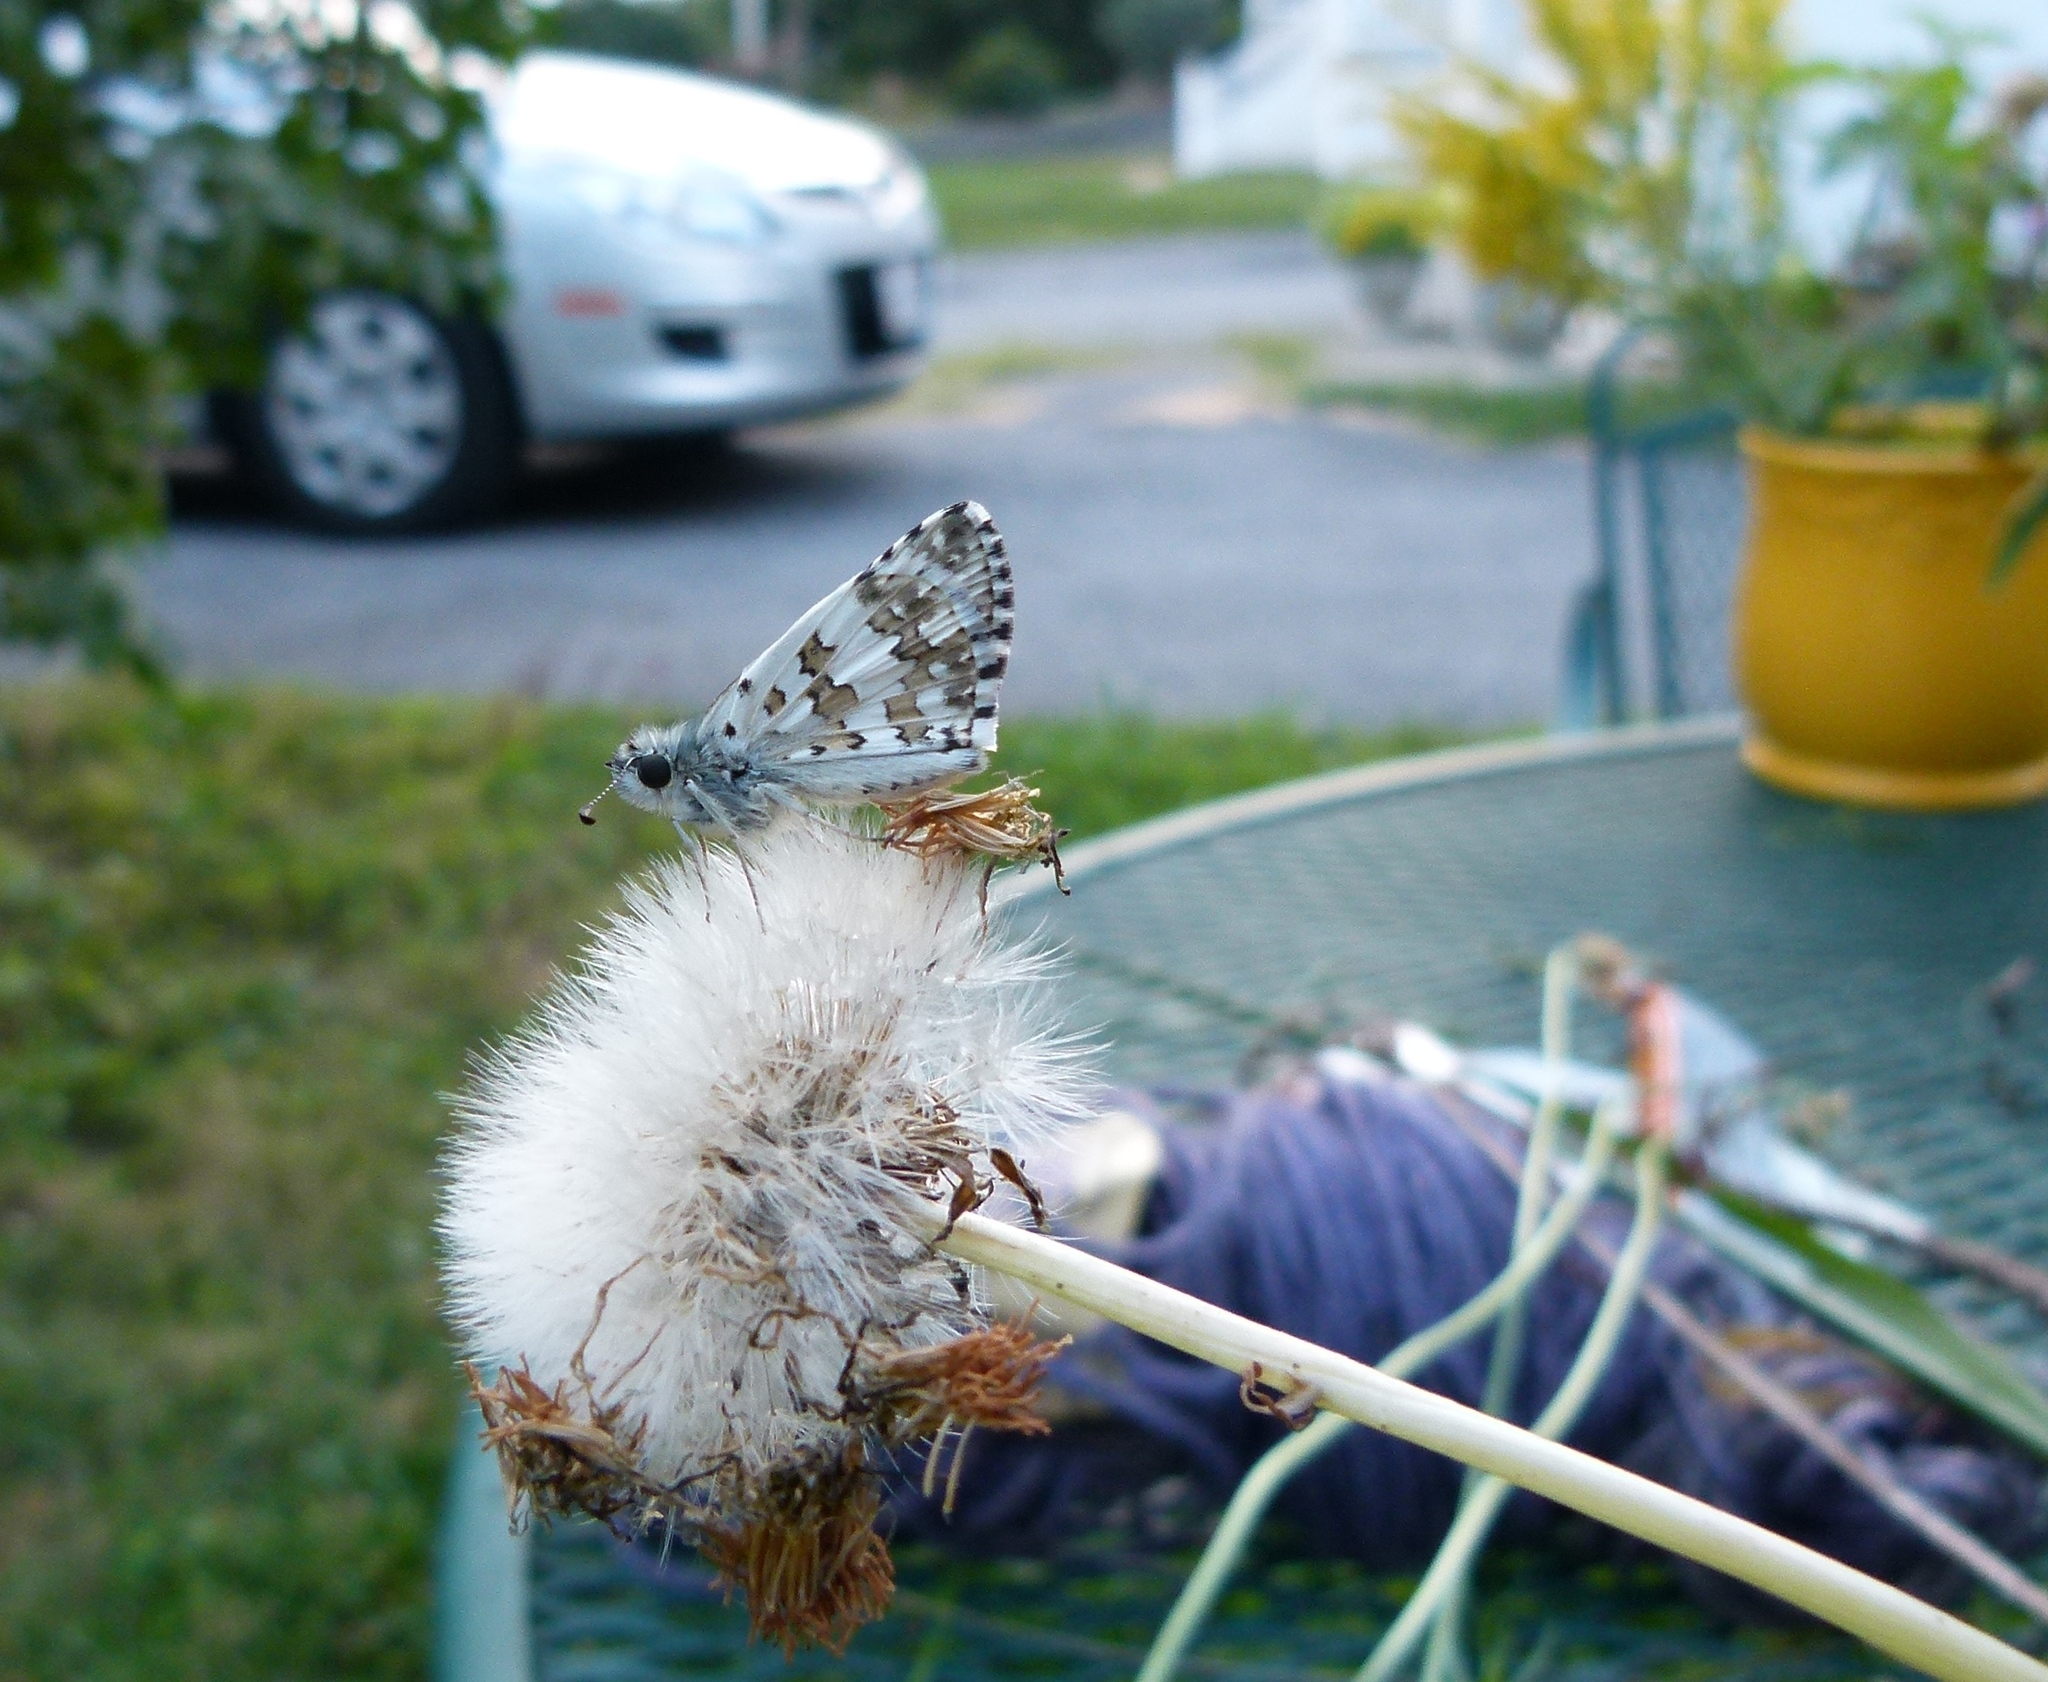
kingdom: Animalia
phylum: Arthropoda
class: Insecta
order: Lepidoptera
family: Hesperiidae
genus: Burnsius
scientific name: Burnsius communis
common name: Common checkered-skipper
